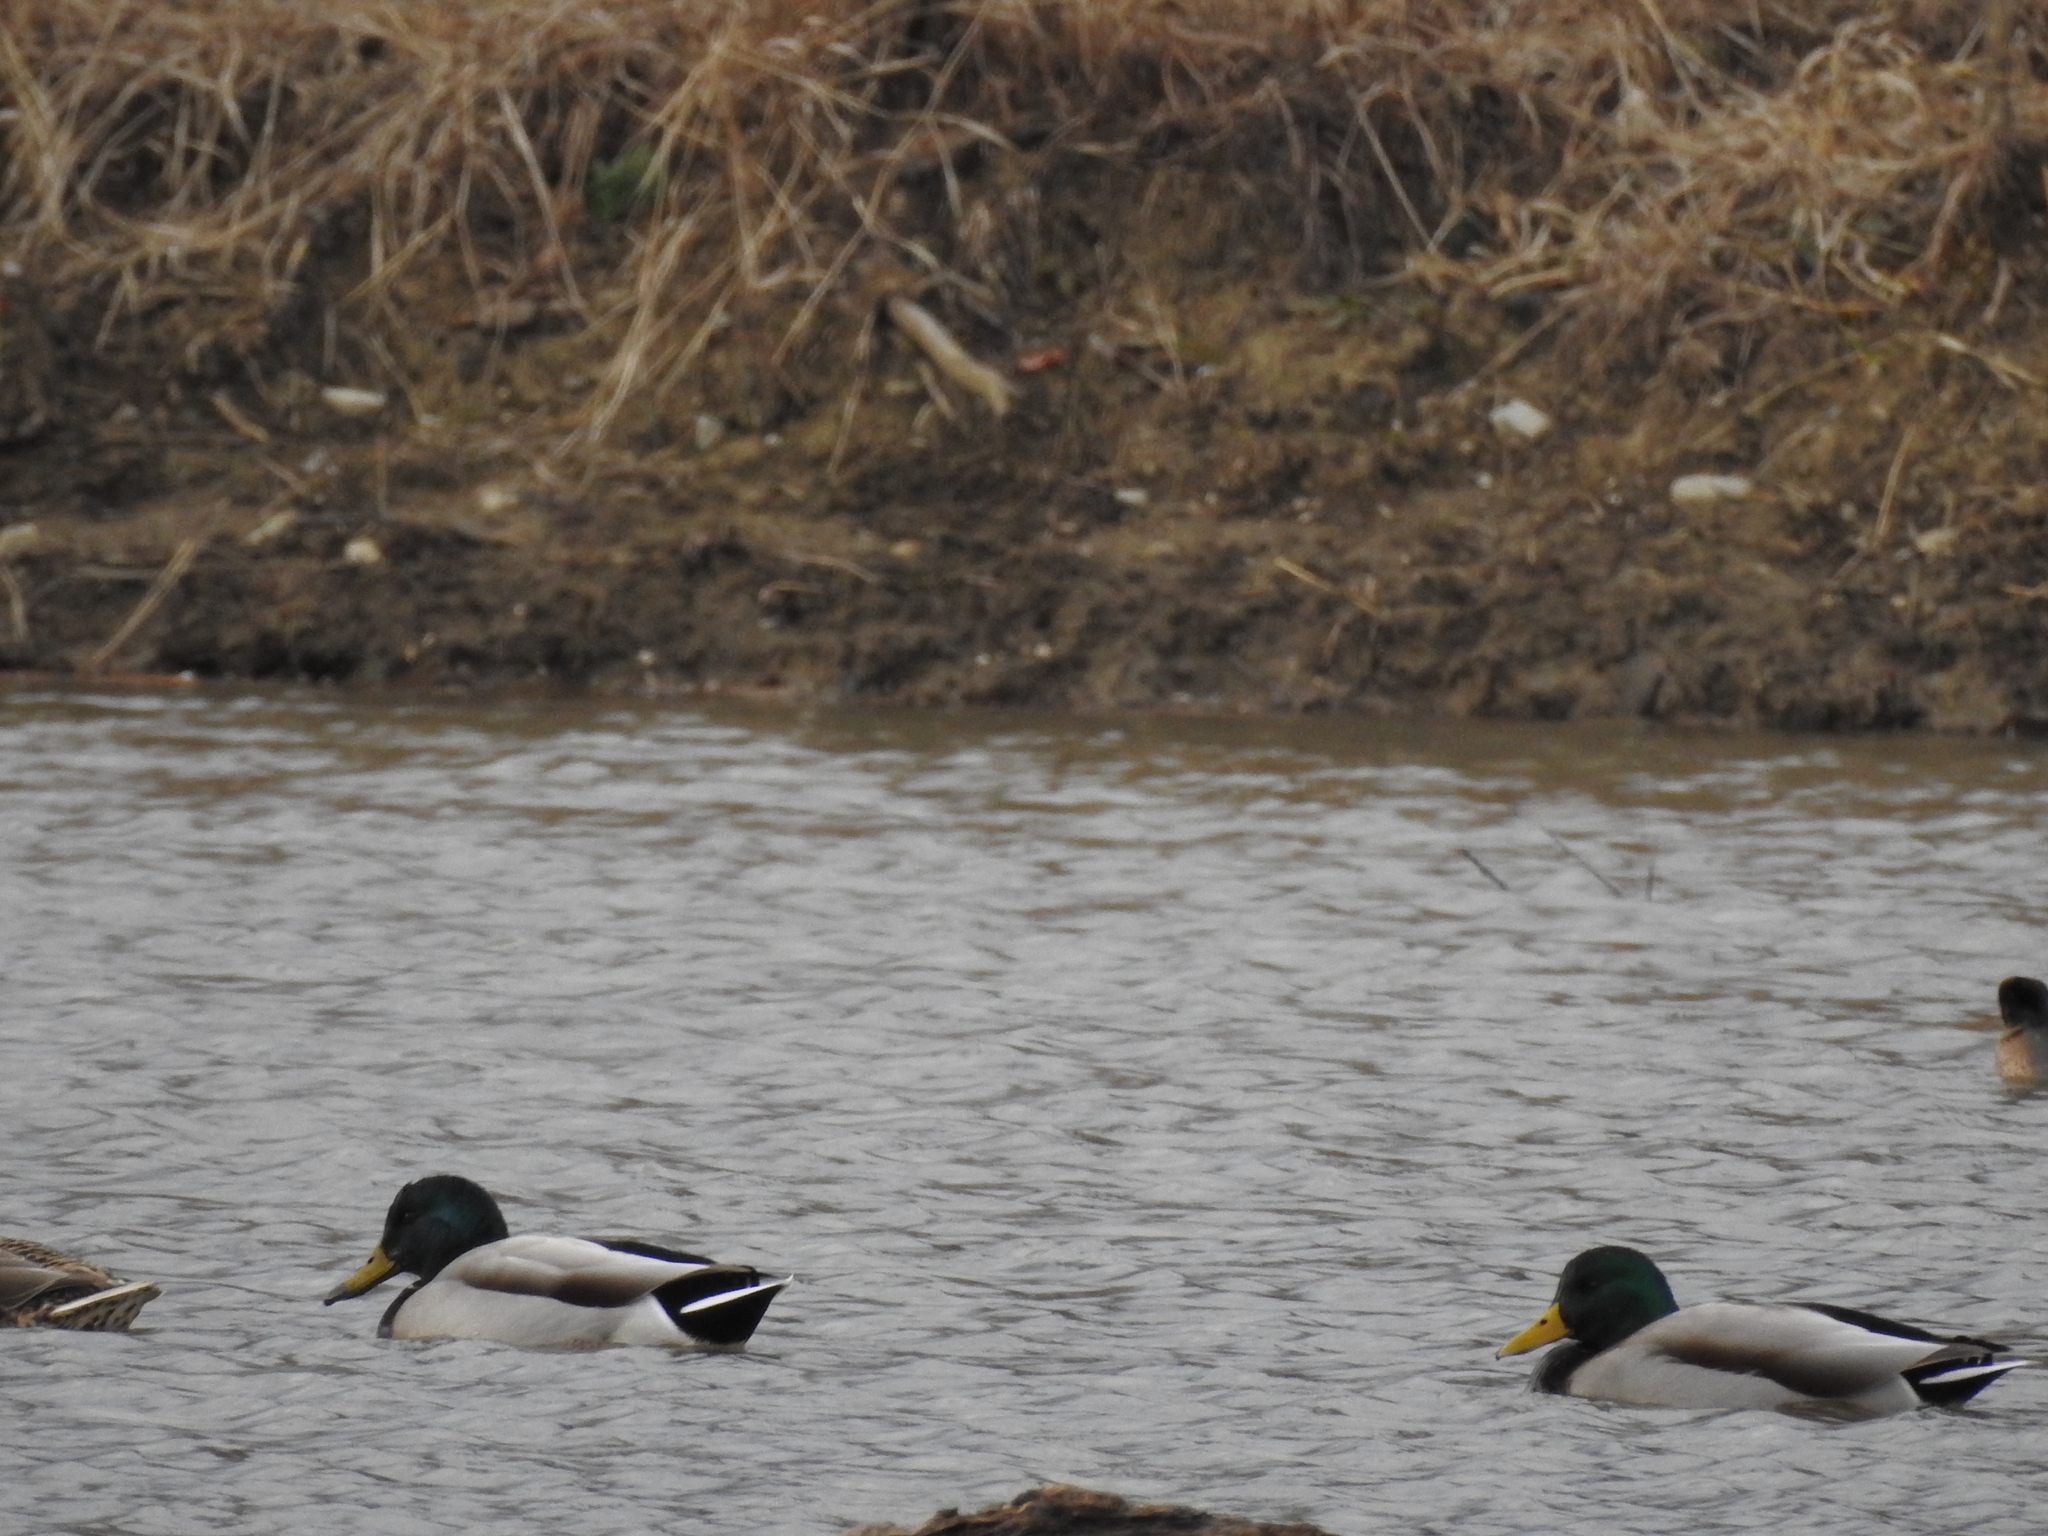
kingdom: Animalia
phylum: Chordata
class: Aves
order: Anseriformes
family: Anatidae
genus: Anas
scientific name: Anas platyrhynchos
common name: Mallard
